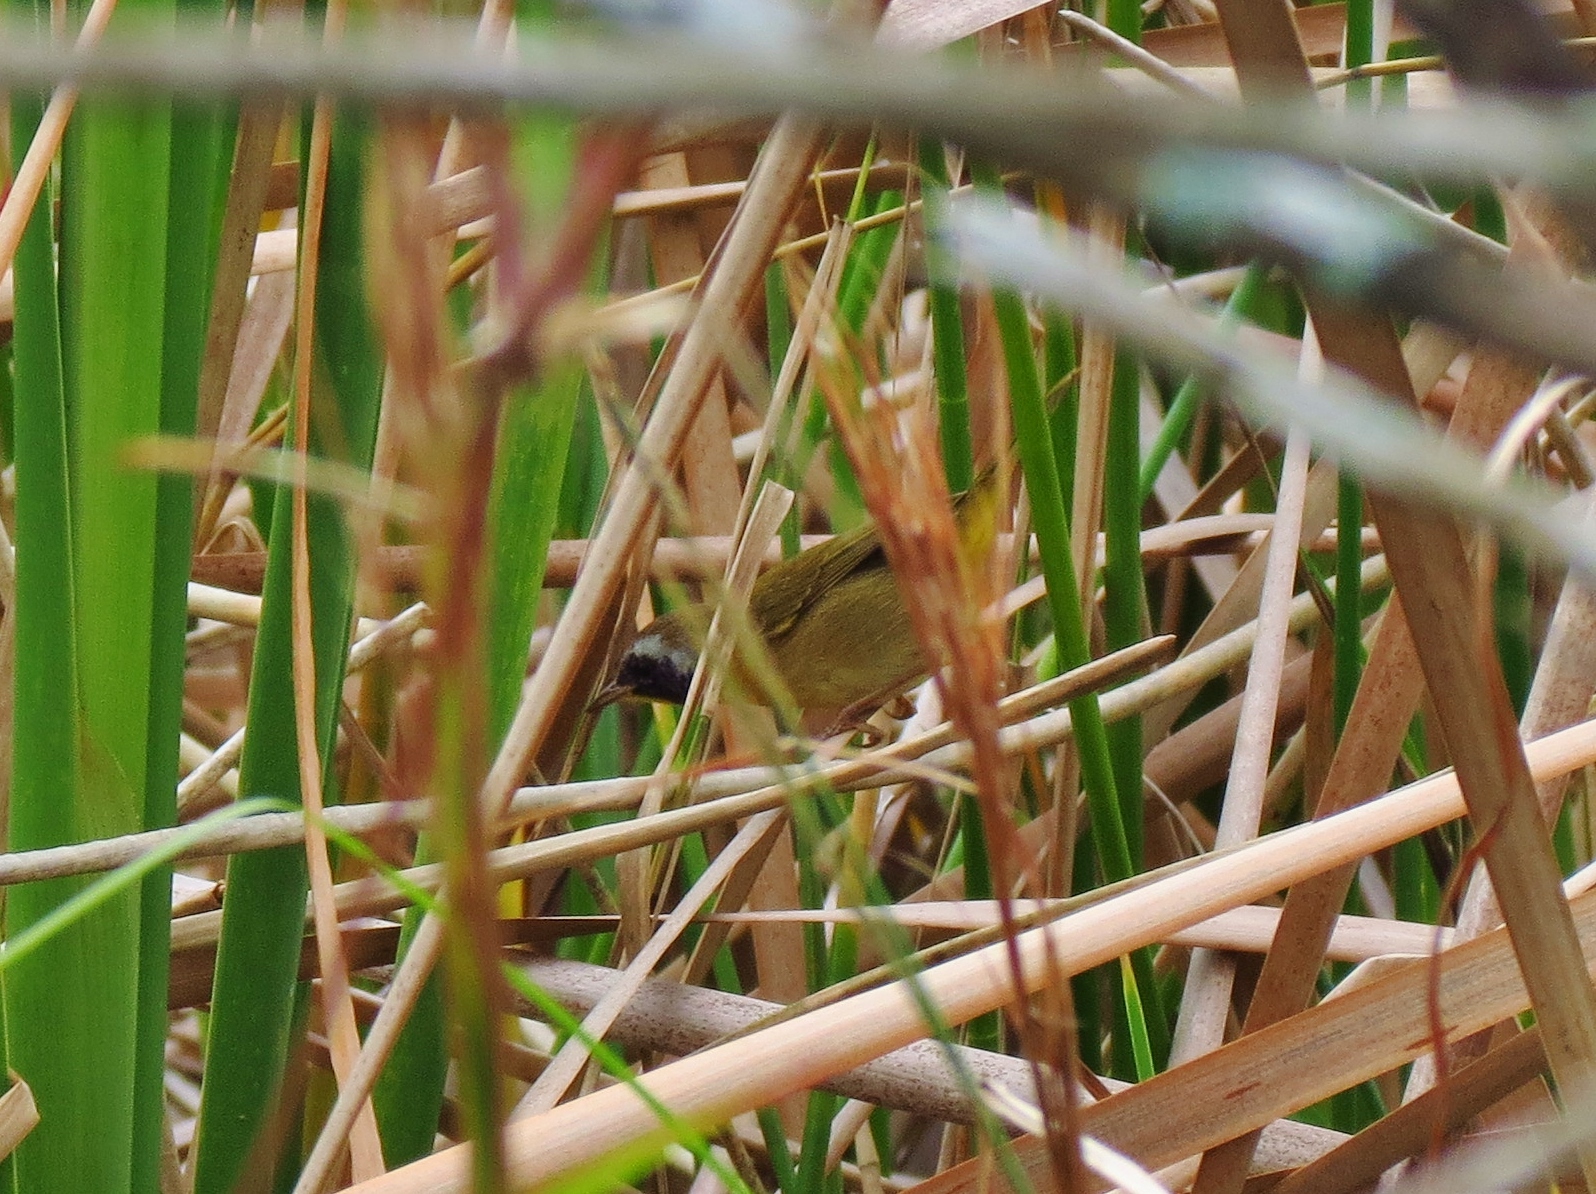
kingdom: Animalia
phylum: Chordata
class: Aves
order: Passeriformes
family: Parulidae
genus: Geothlypis
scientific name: Geothlypis trichas
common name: Common yellowthroat
